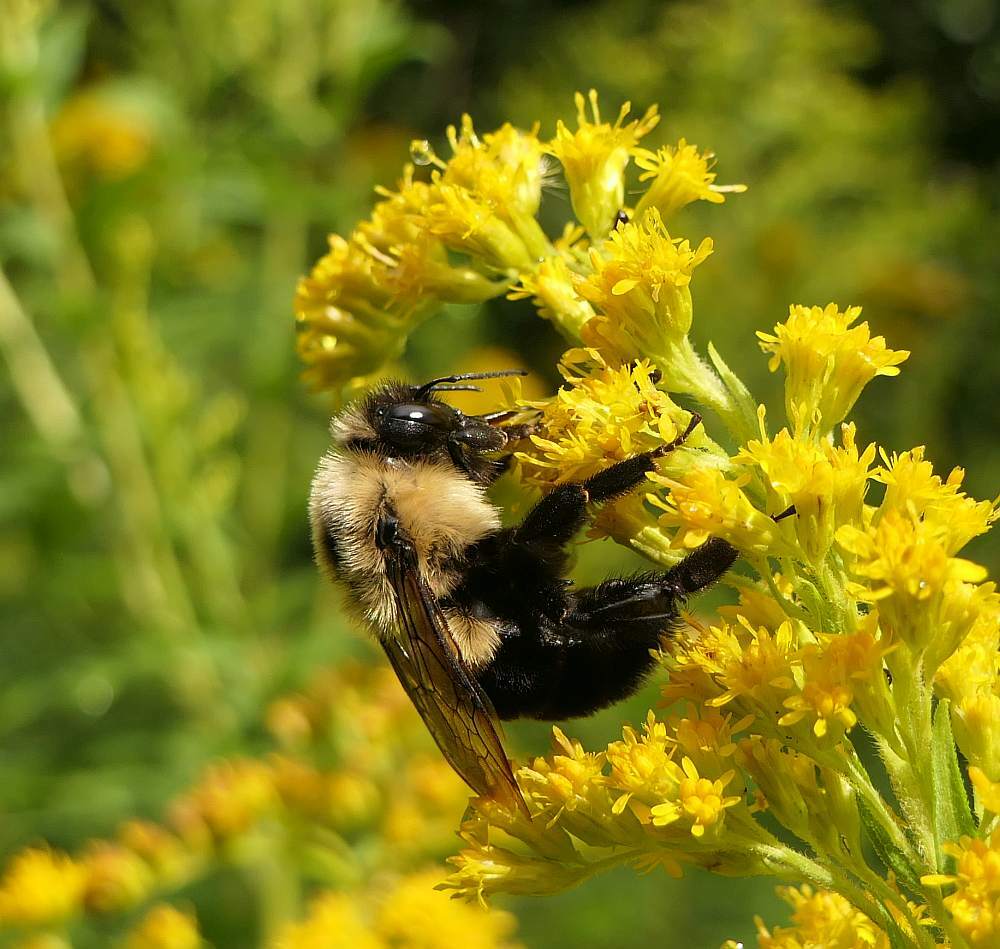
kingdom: Animalia
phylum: Arthropoda
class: Insecta
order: Hymenoptera
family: Apidae
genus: Bombus
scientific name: Bombus impatiens
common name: Common eastern bumble bee
